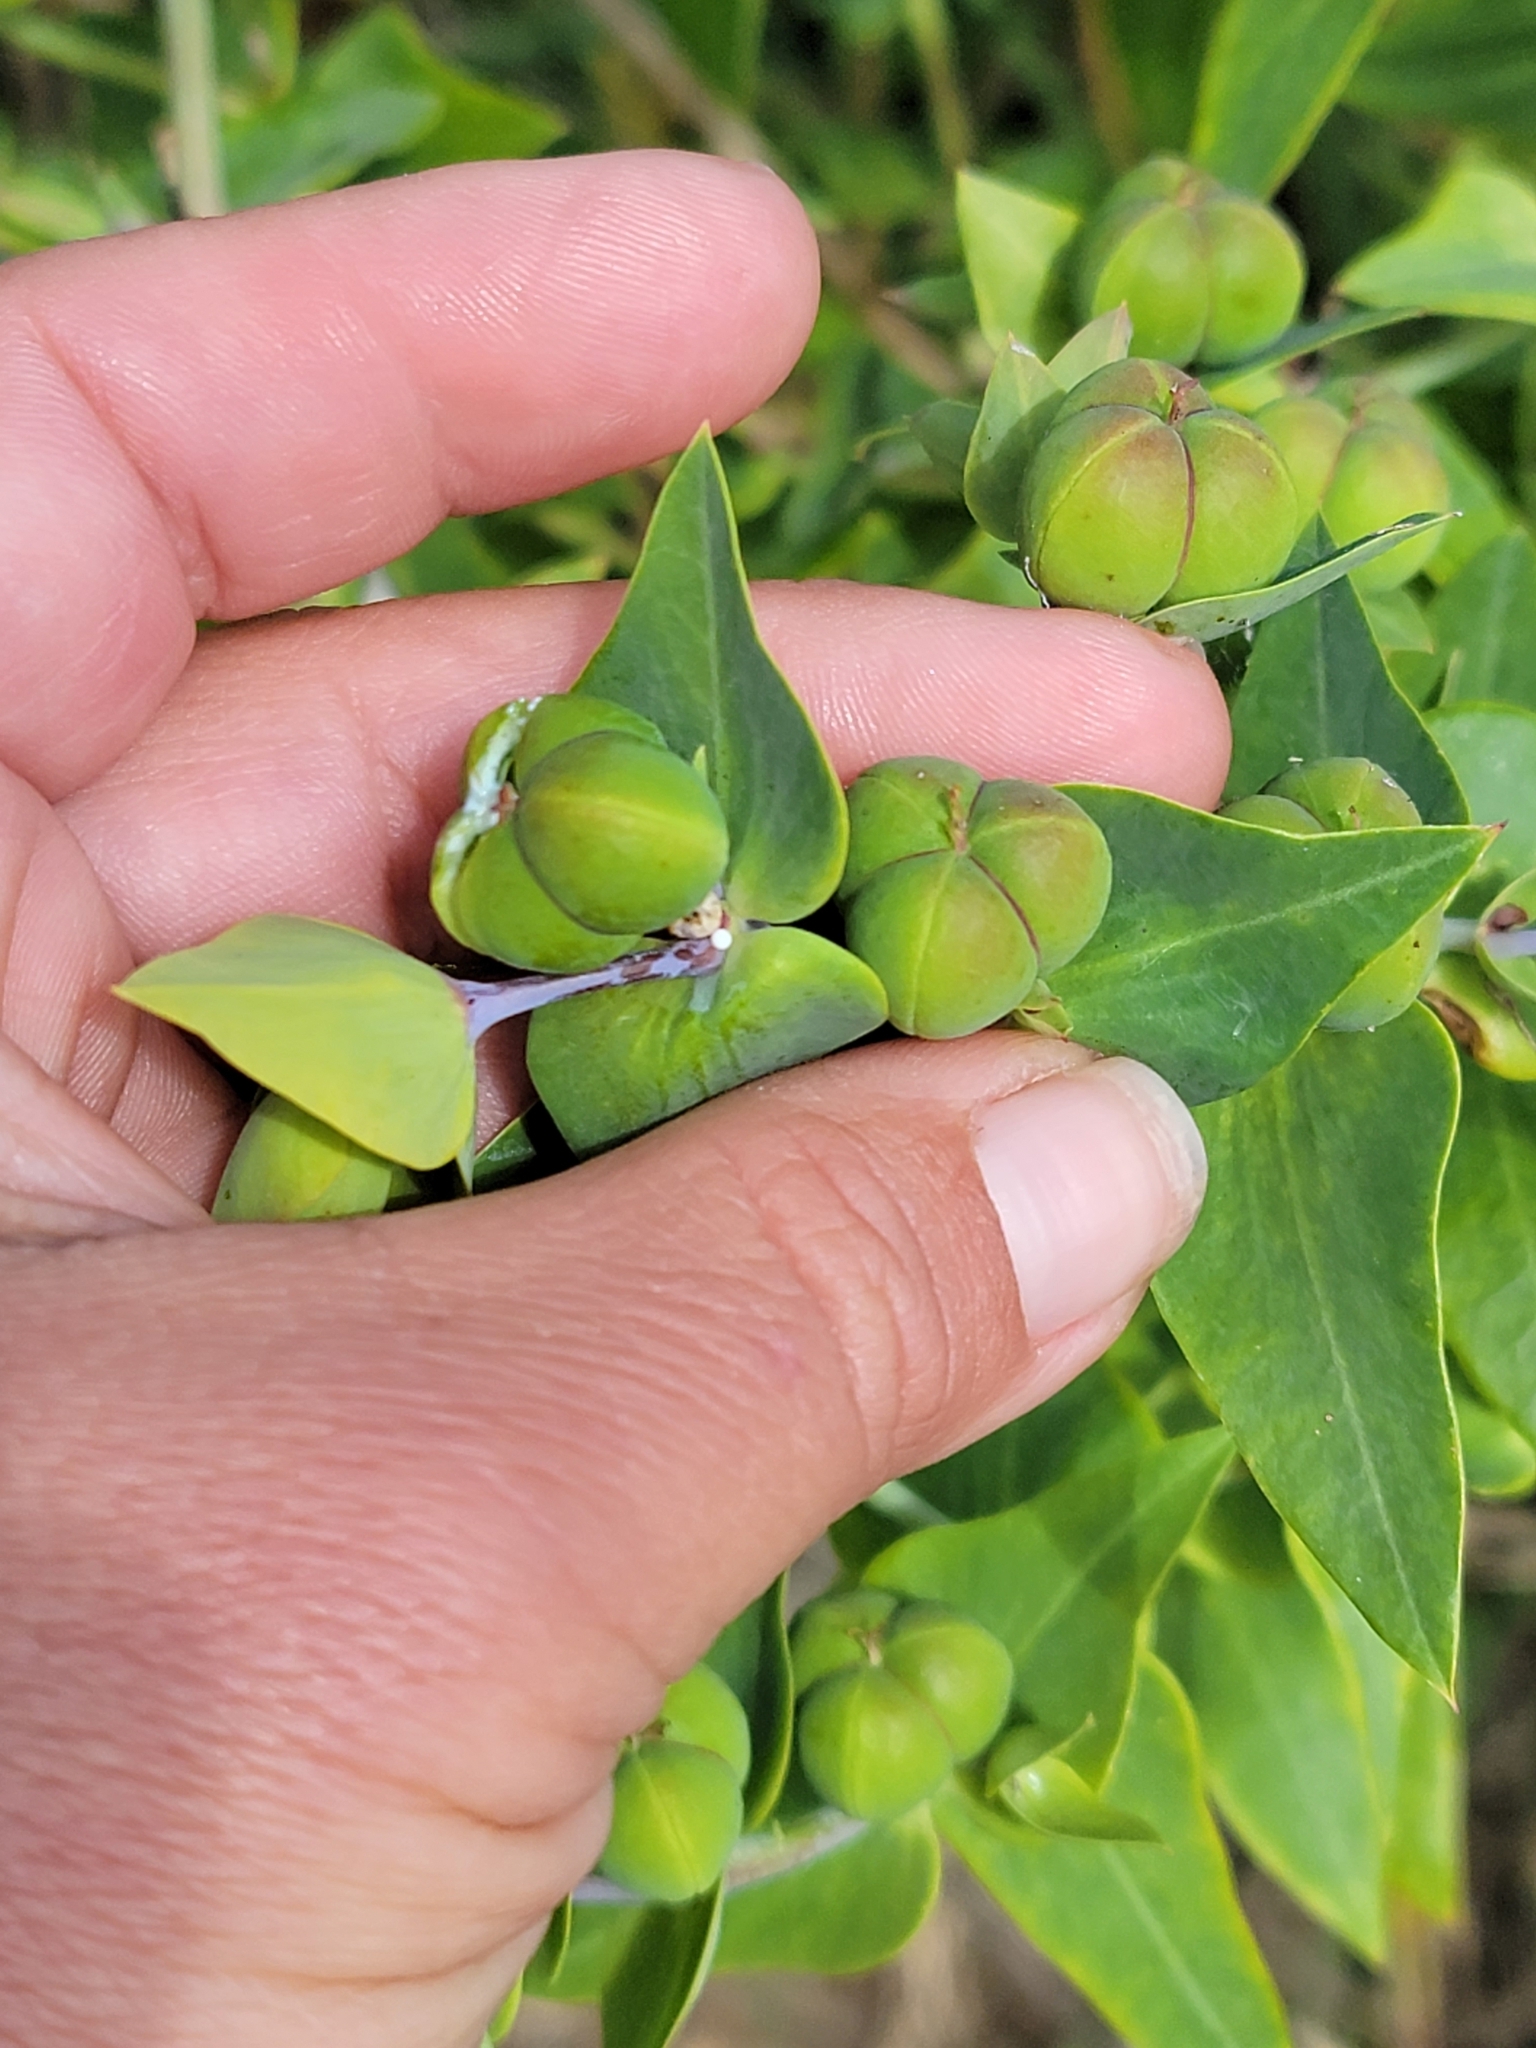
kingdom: Plantae
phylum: Tracheophyta
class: Magnoliopsida
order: Malpighiales
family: Euphorbiaceae
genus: Euphorbia
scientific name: Euphorbia lathyris
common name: Caper spurge
